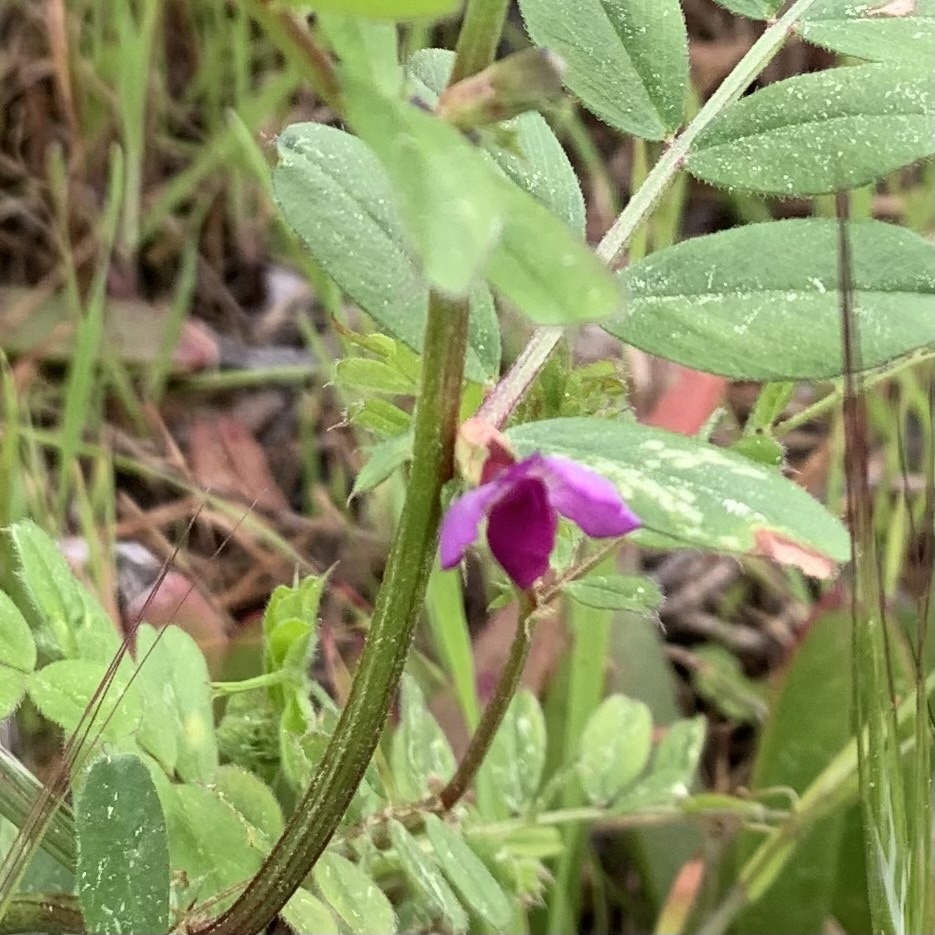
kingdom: Plantae
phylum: Tracheophyta
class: Magnoliopsida
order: Fabales
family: Fabaceae
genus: Vicia
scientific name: Vicia sativa
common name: Garden vetch
